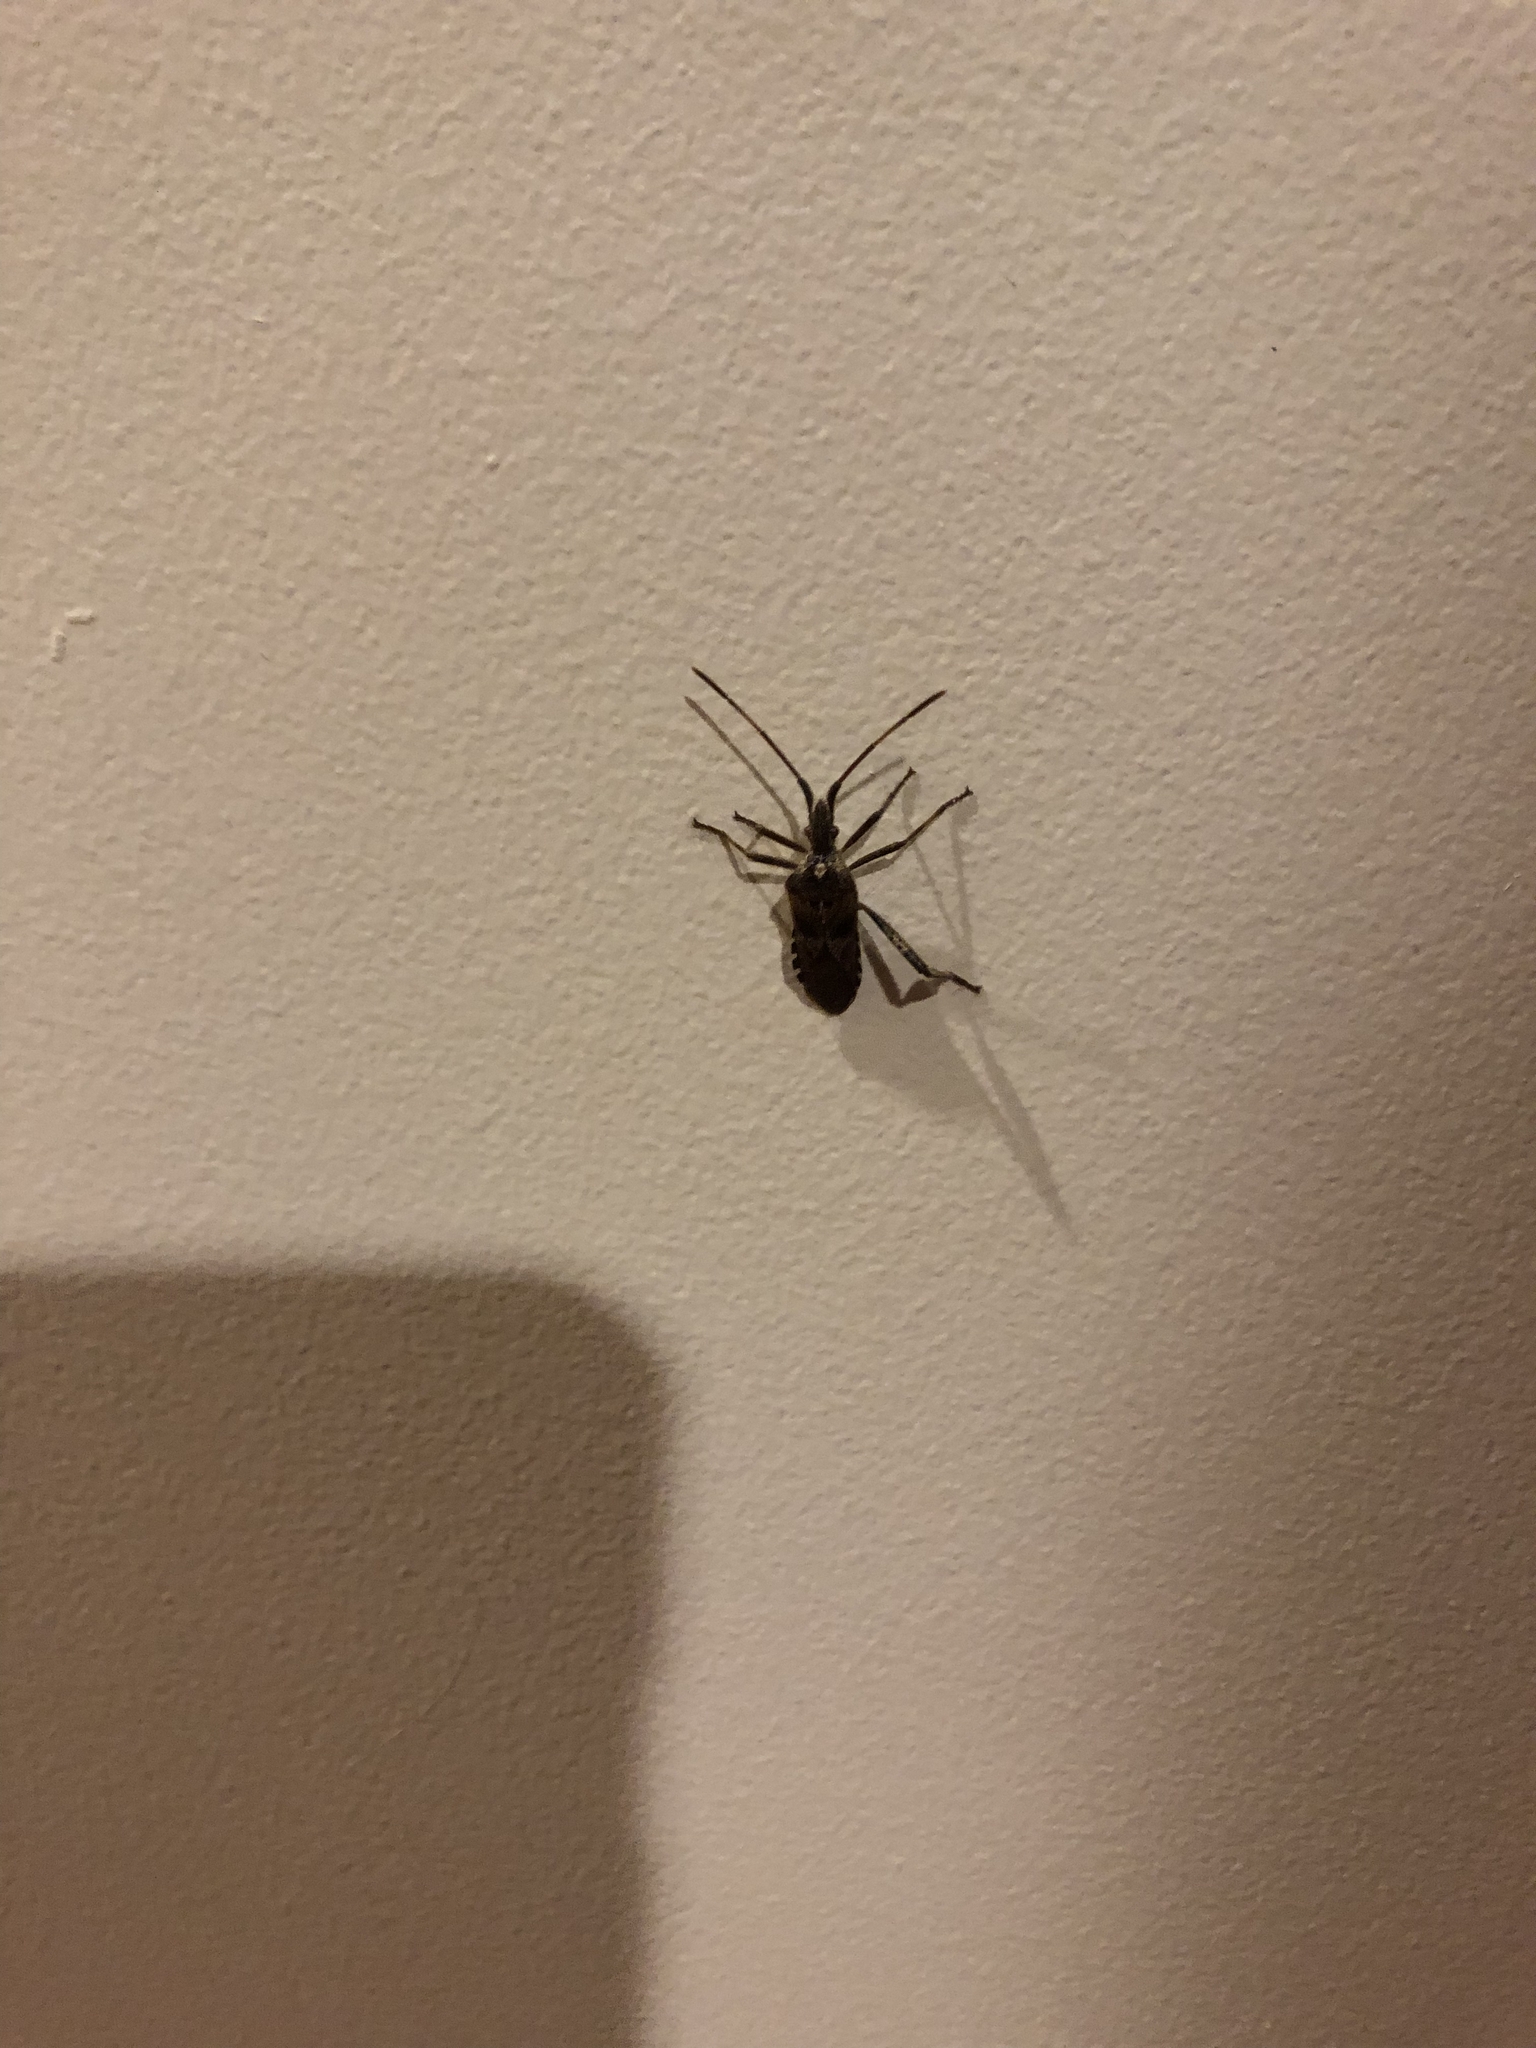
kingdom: Animalia
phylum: Arthropoda
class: Insecta
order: Hemiptera
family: Coreidae
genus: Leptoglossus
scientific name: Leptoglossus occidentalis
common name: Western conifer-seed bug
